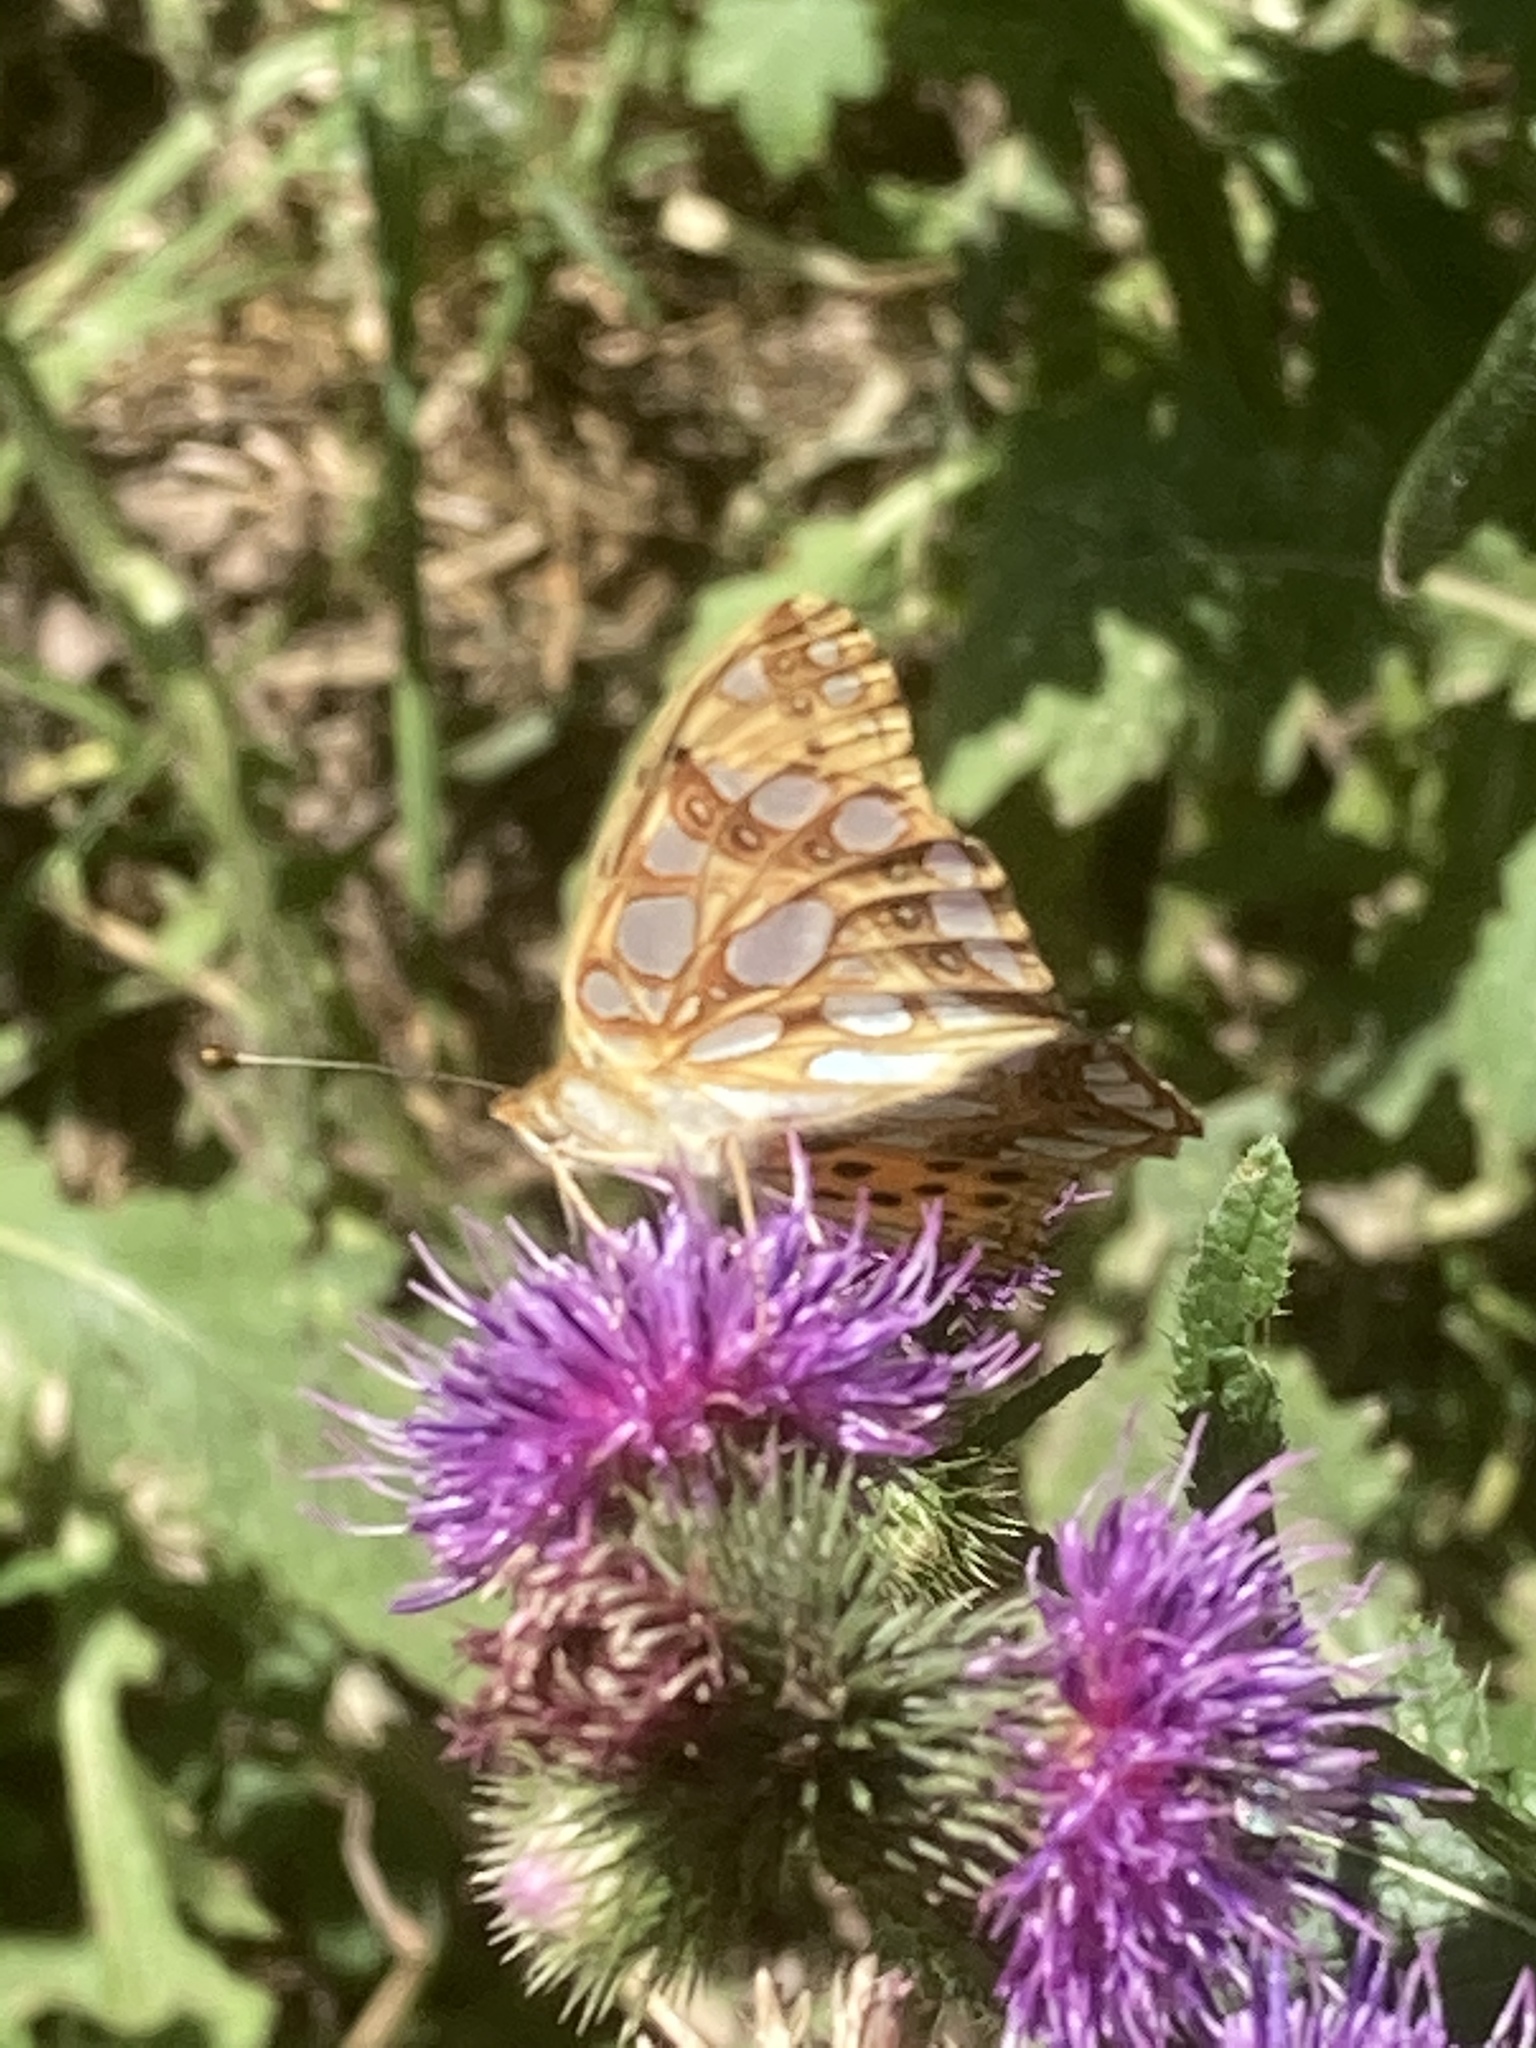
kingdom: Animalia
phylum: Arthropoda
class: Insecta
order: Lepidoptera
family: Nymphalidae
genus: Issoria
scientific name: Issoria lathonia
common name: Queen of spain fritillary
